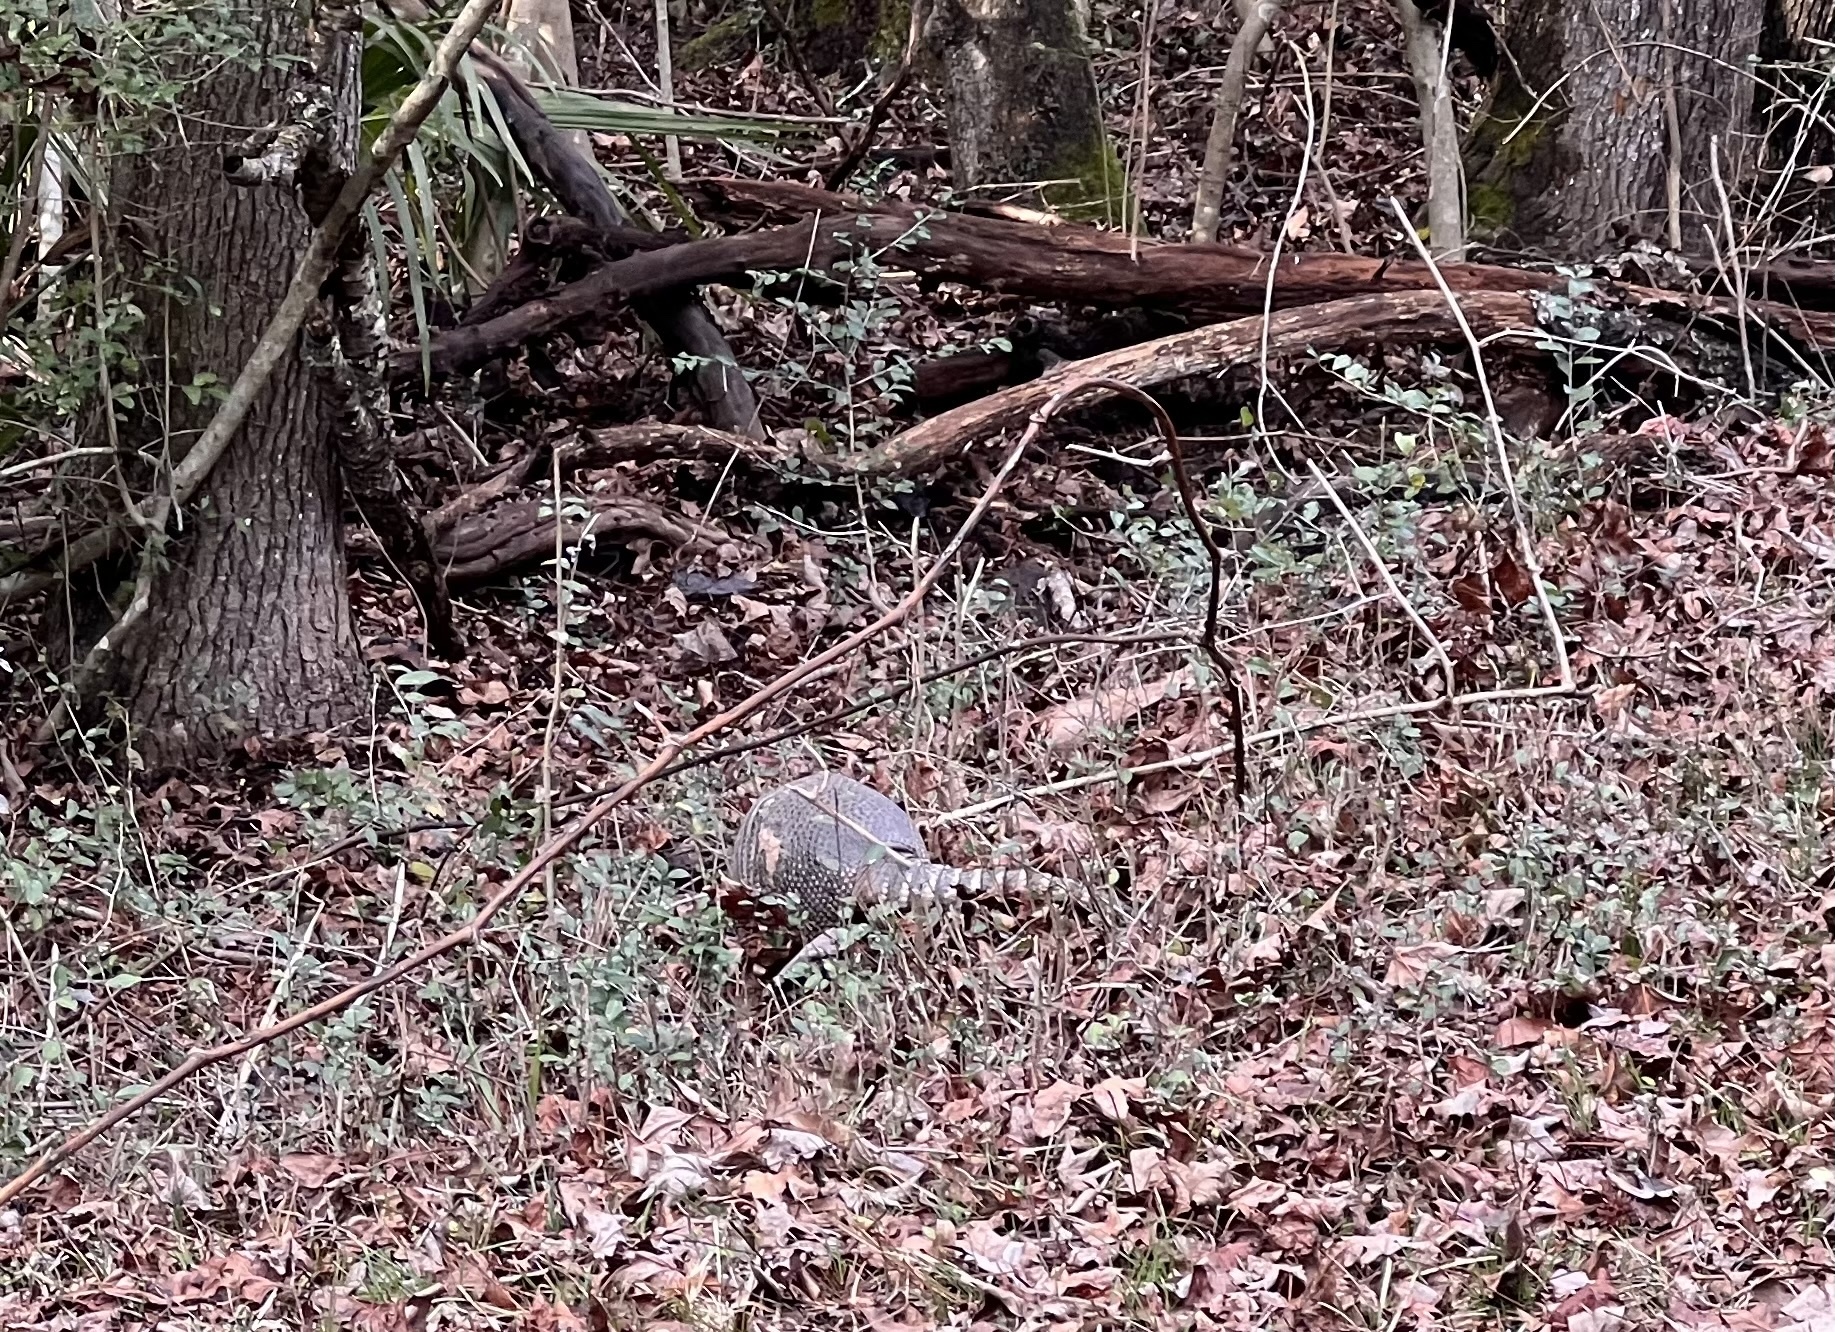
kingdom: Animalia
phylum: Chordata
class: Mammalia
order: Cingulata
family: Dasypodidae
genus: Dasypus
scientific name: Dasypus novemcinctus
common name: Nine-banded armadillo
